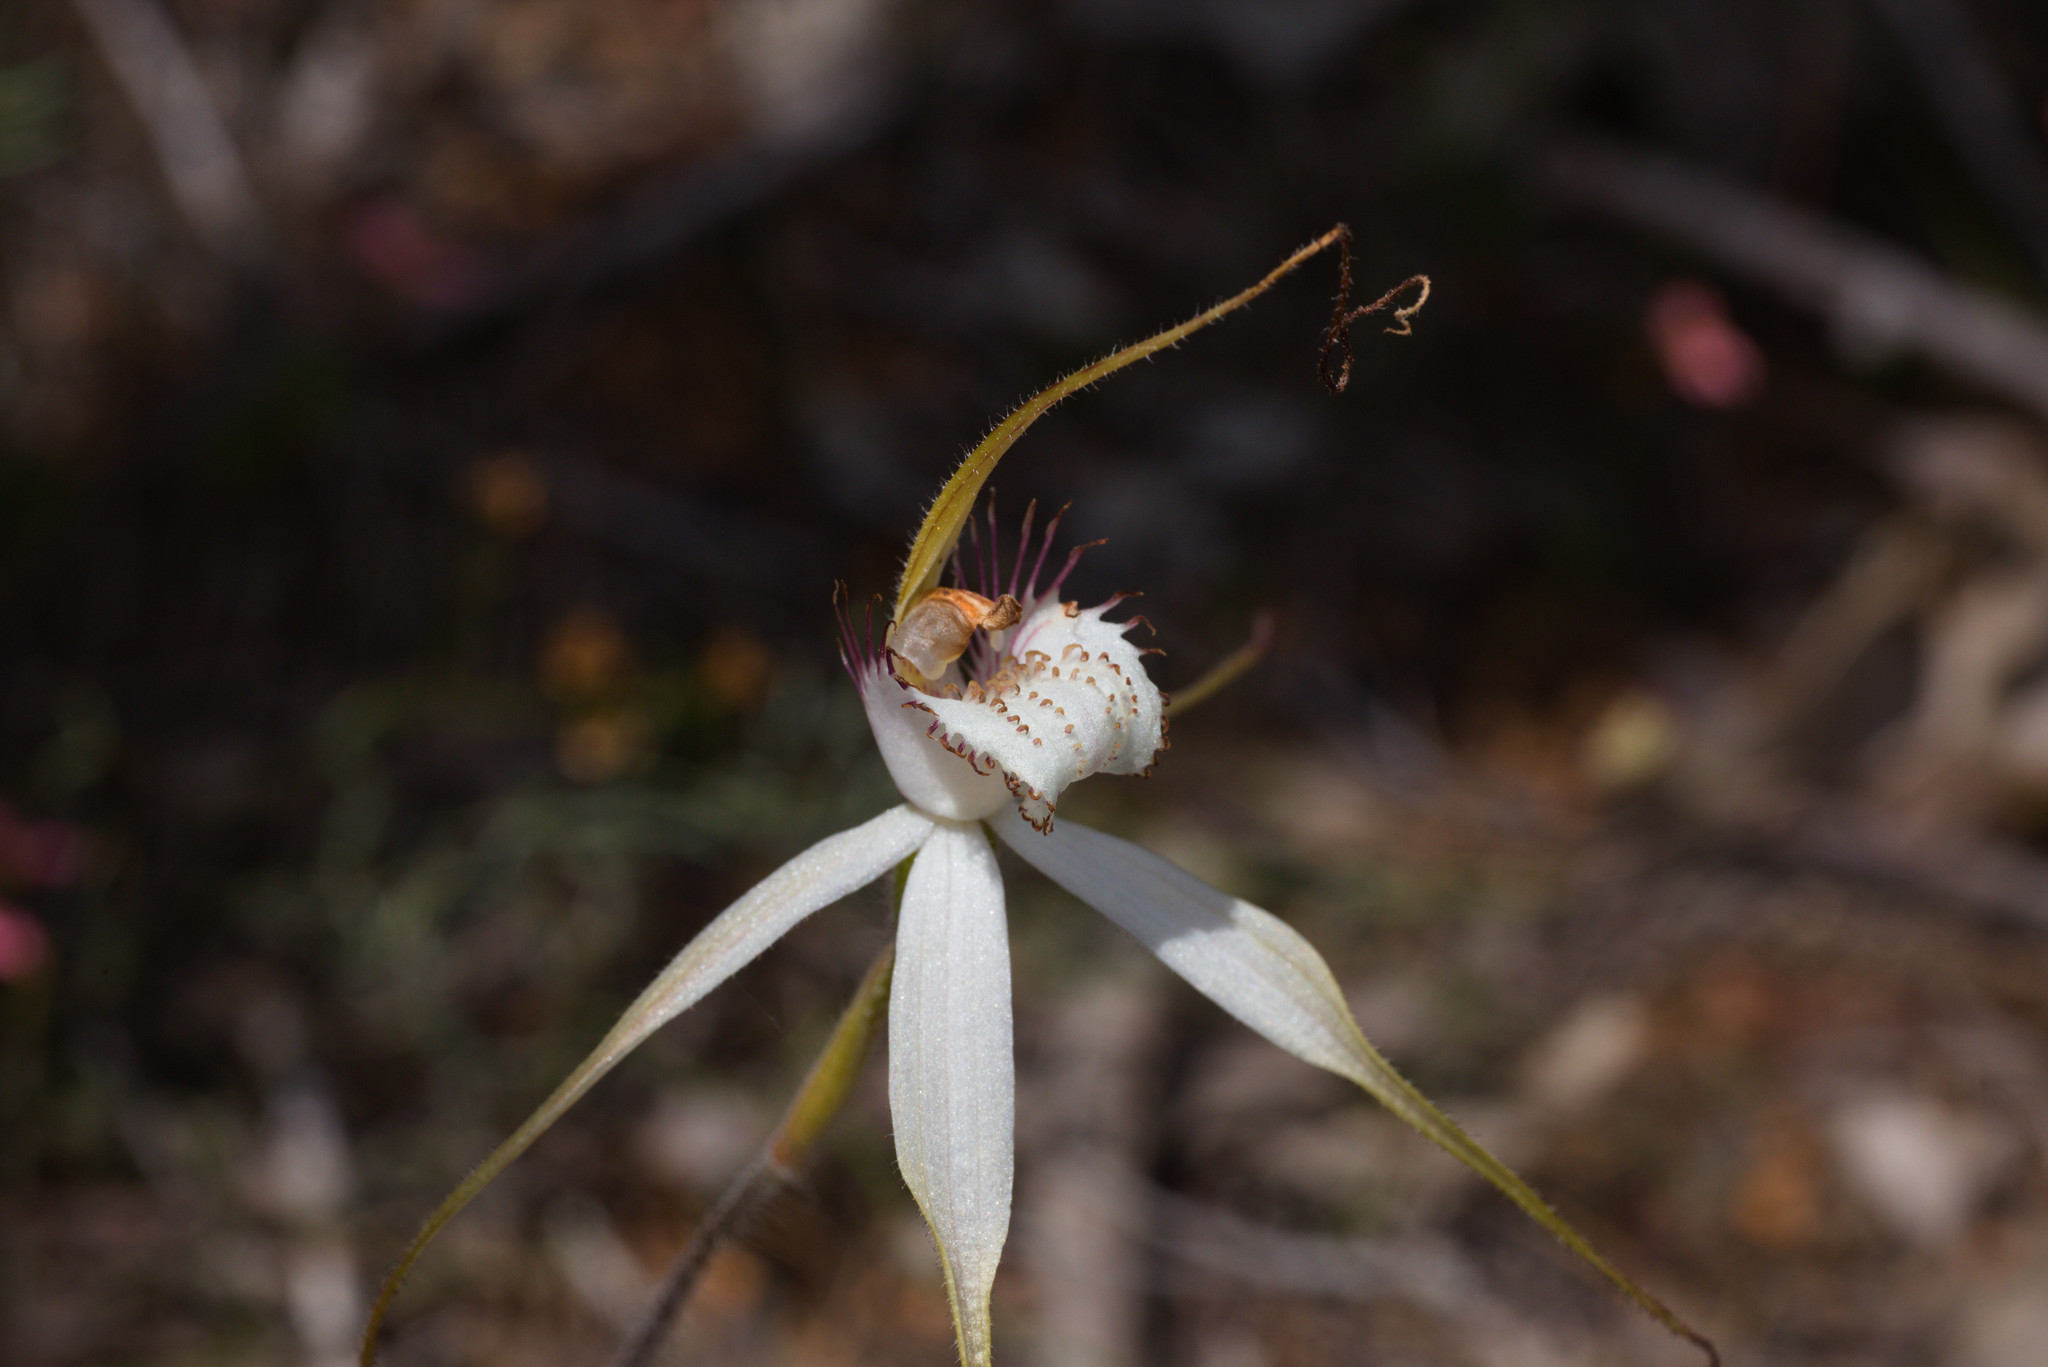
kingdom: Plantae
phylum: Tracheophyta
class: Liliopsida
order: Asparagales
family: Orchidaceae
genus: Caladenia
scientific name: Caladenia longicauda
